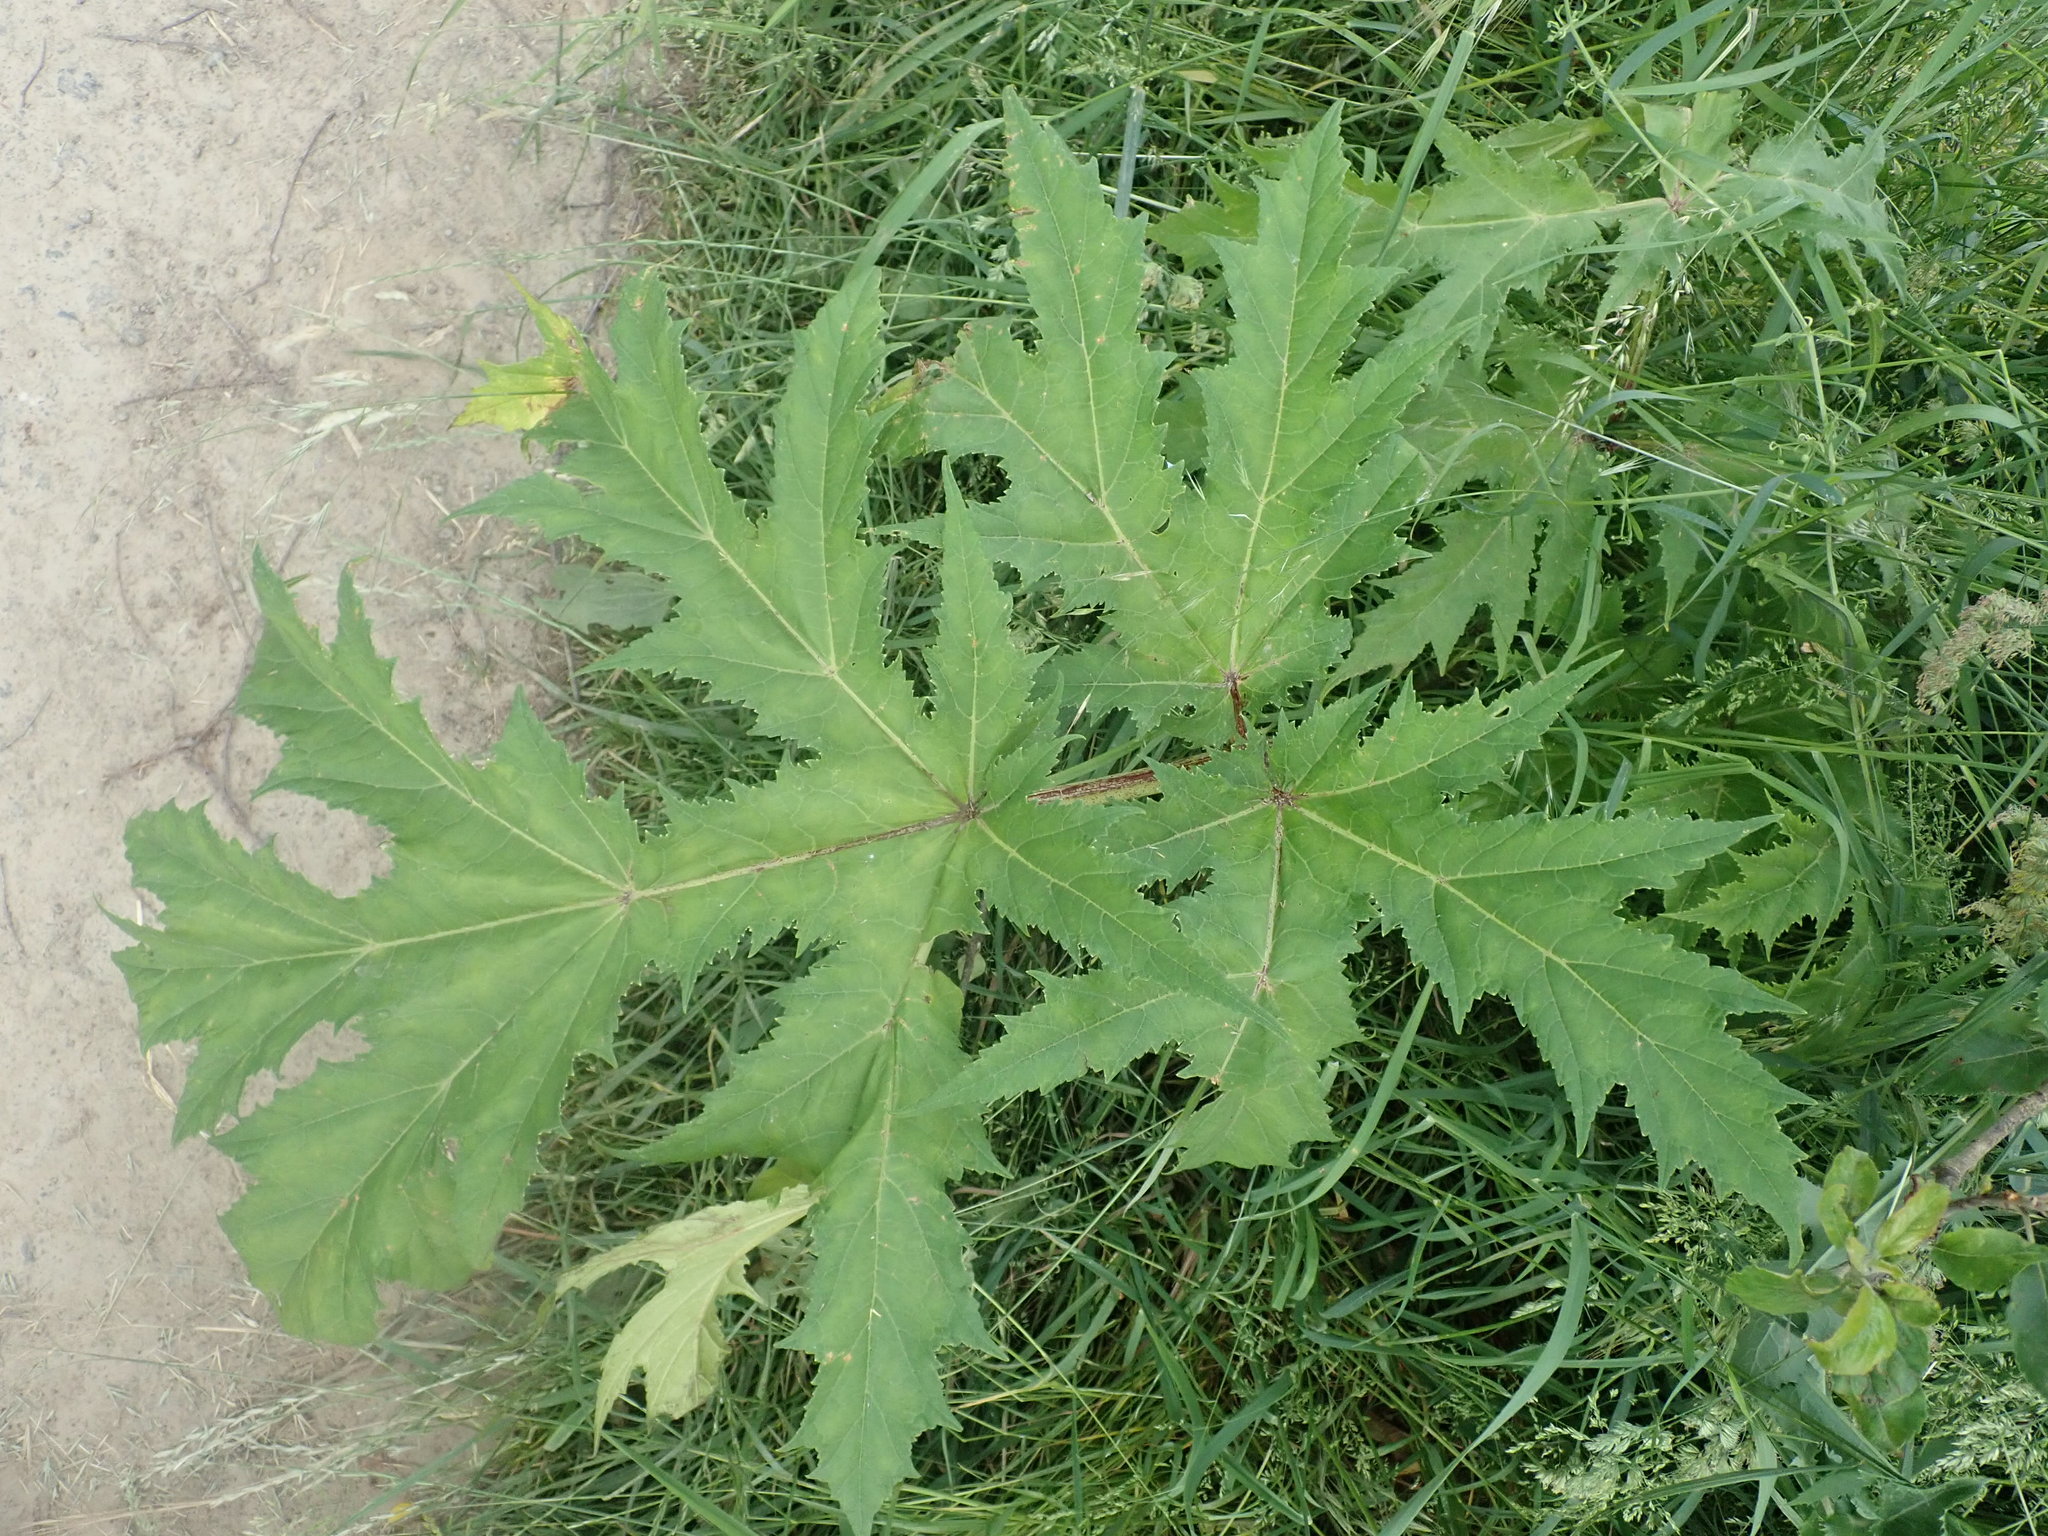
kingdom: Plantae
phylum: Tracheophyta
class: Magnoliopsida
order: Apiales
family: Apiaceae
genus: Heracleum
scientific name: Heracleum mantegazzianum
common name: Giant hogweed
